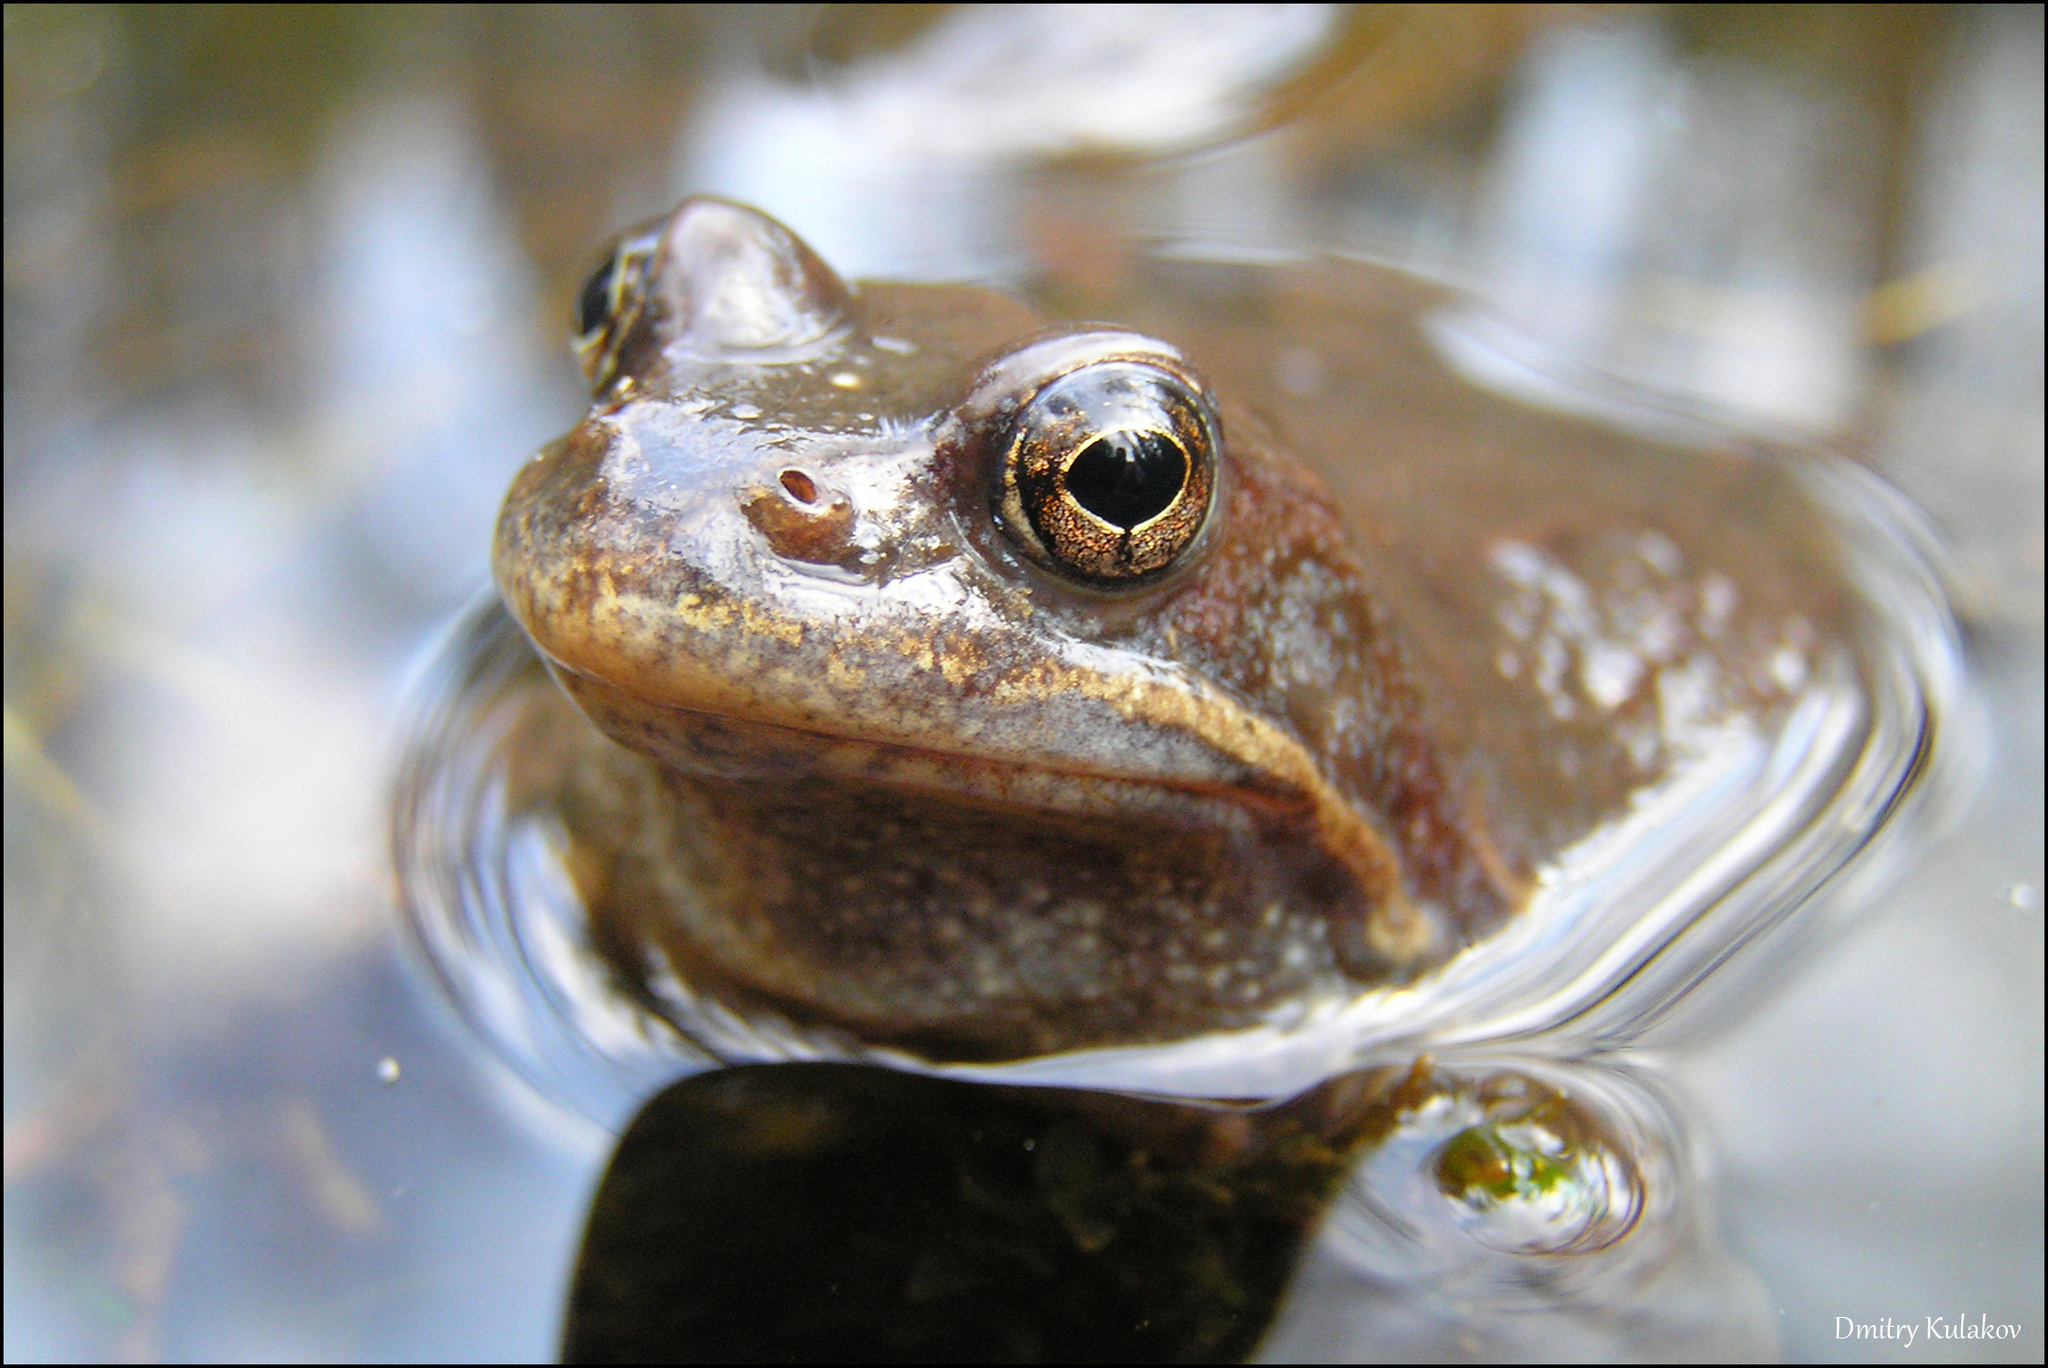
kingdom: Animalia
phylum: Chordata
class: Amphibia
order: Anura
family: Ranidae
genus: Rana
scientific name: Rana temporaria
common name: Common frog
